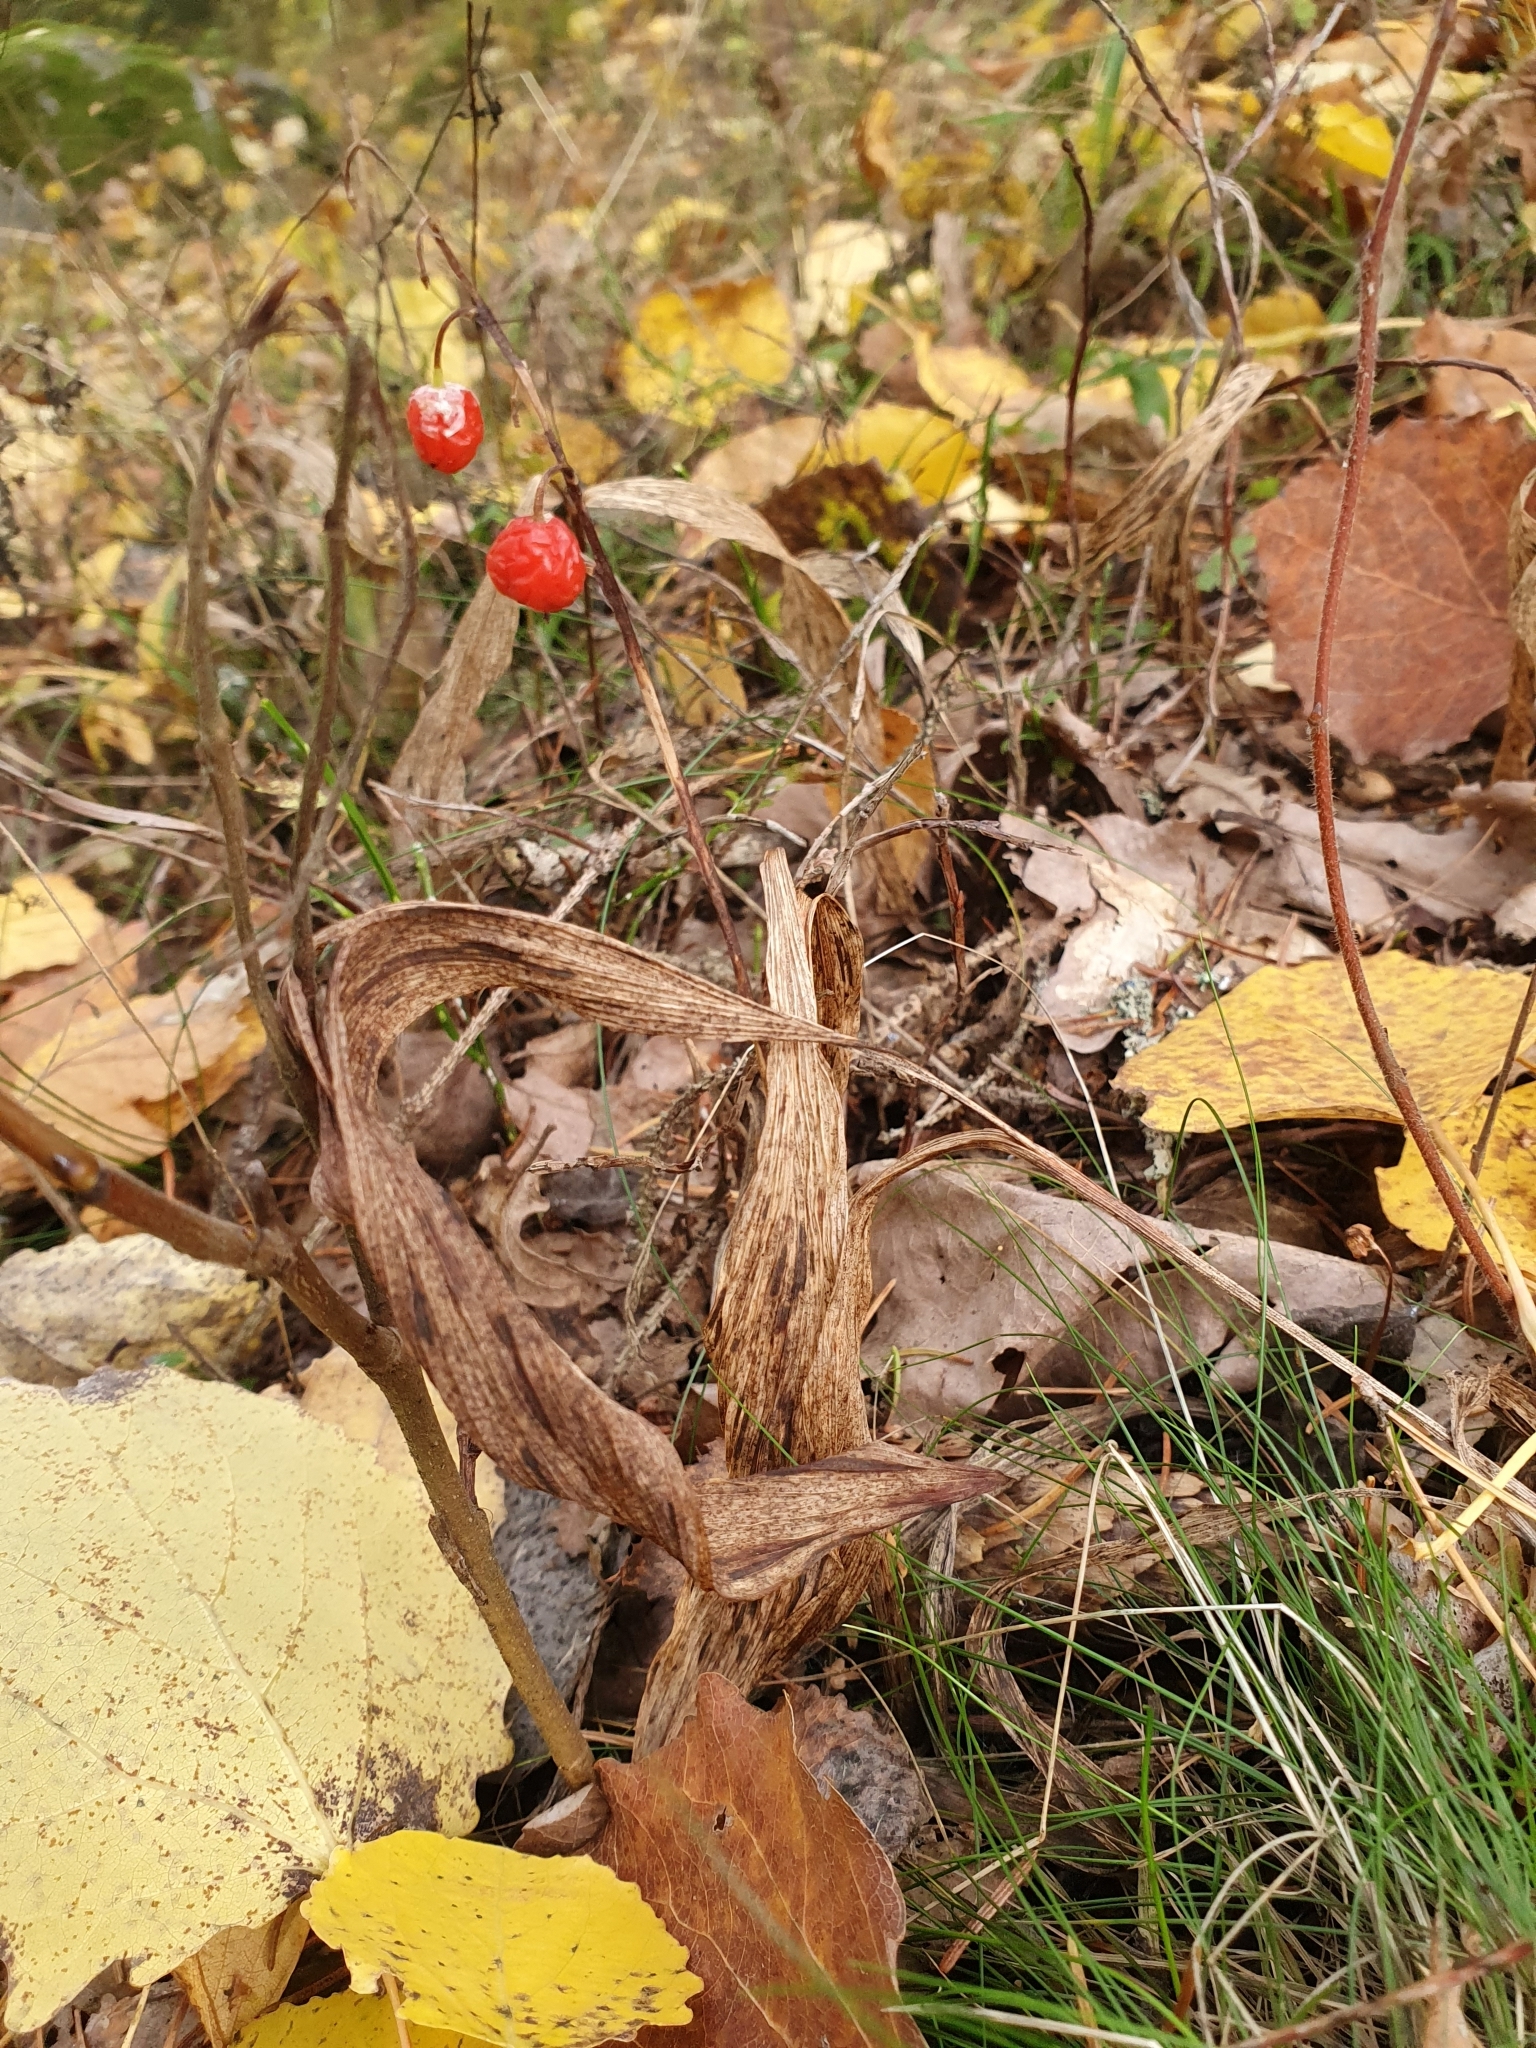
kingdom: Plantae
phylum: Tracheophyta
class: Liliopsida
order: Asparagales
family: Asparagaceae
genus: Convallaria
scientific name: Convallaria majalis
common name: Lily-of-the-valley
